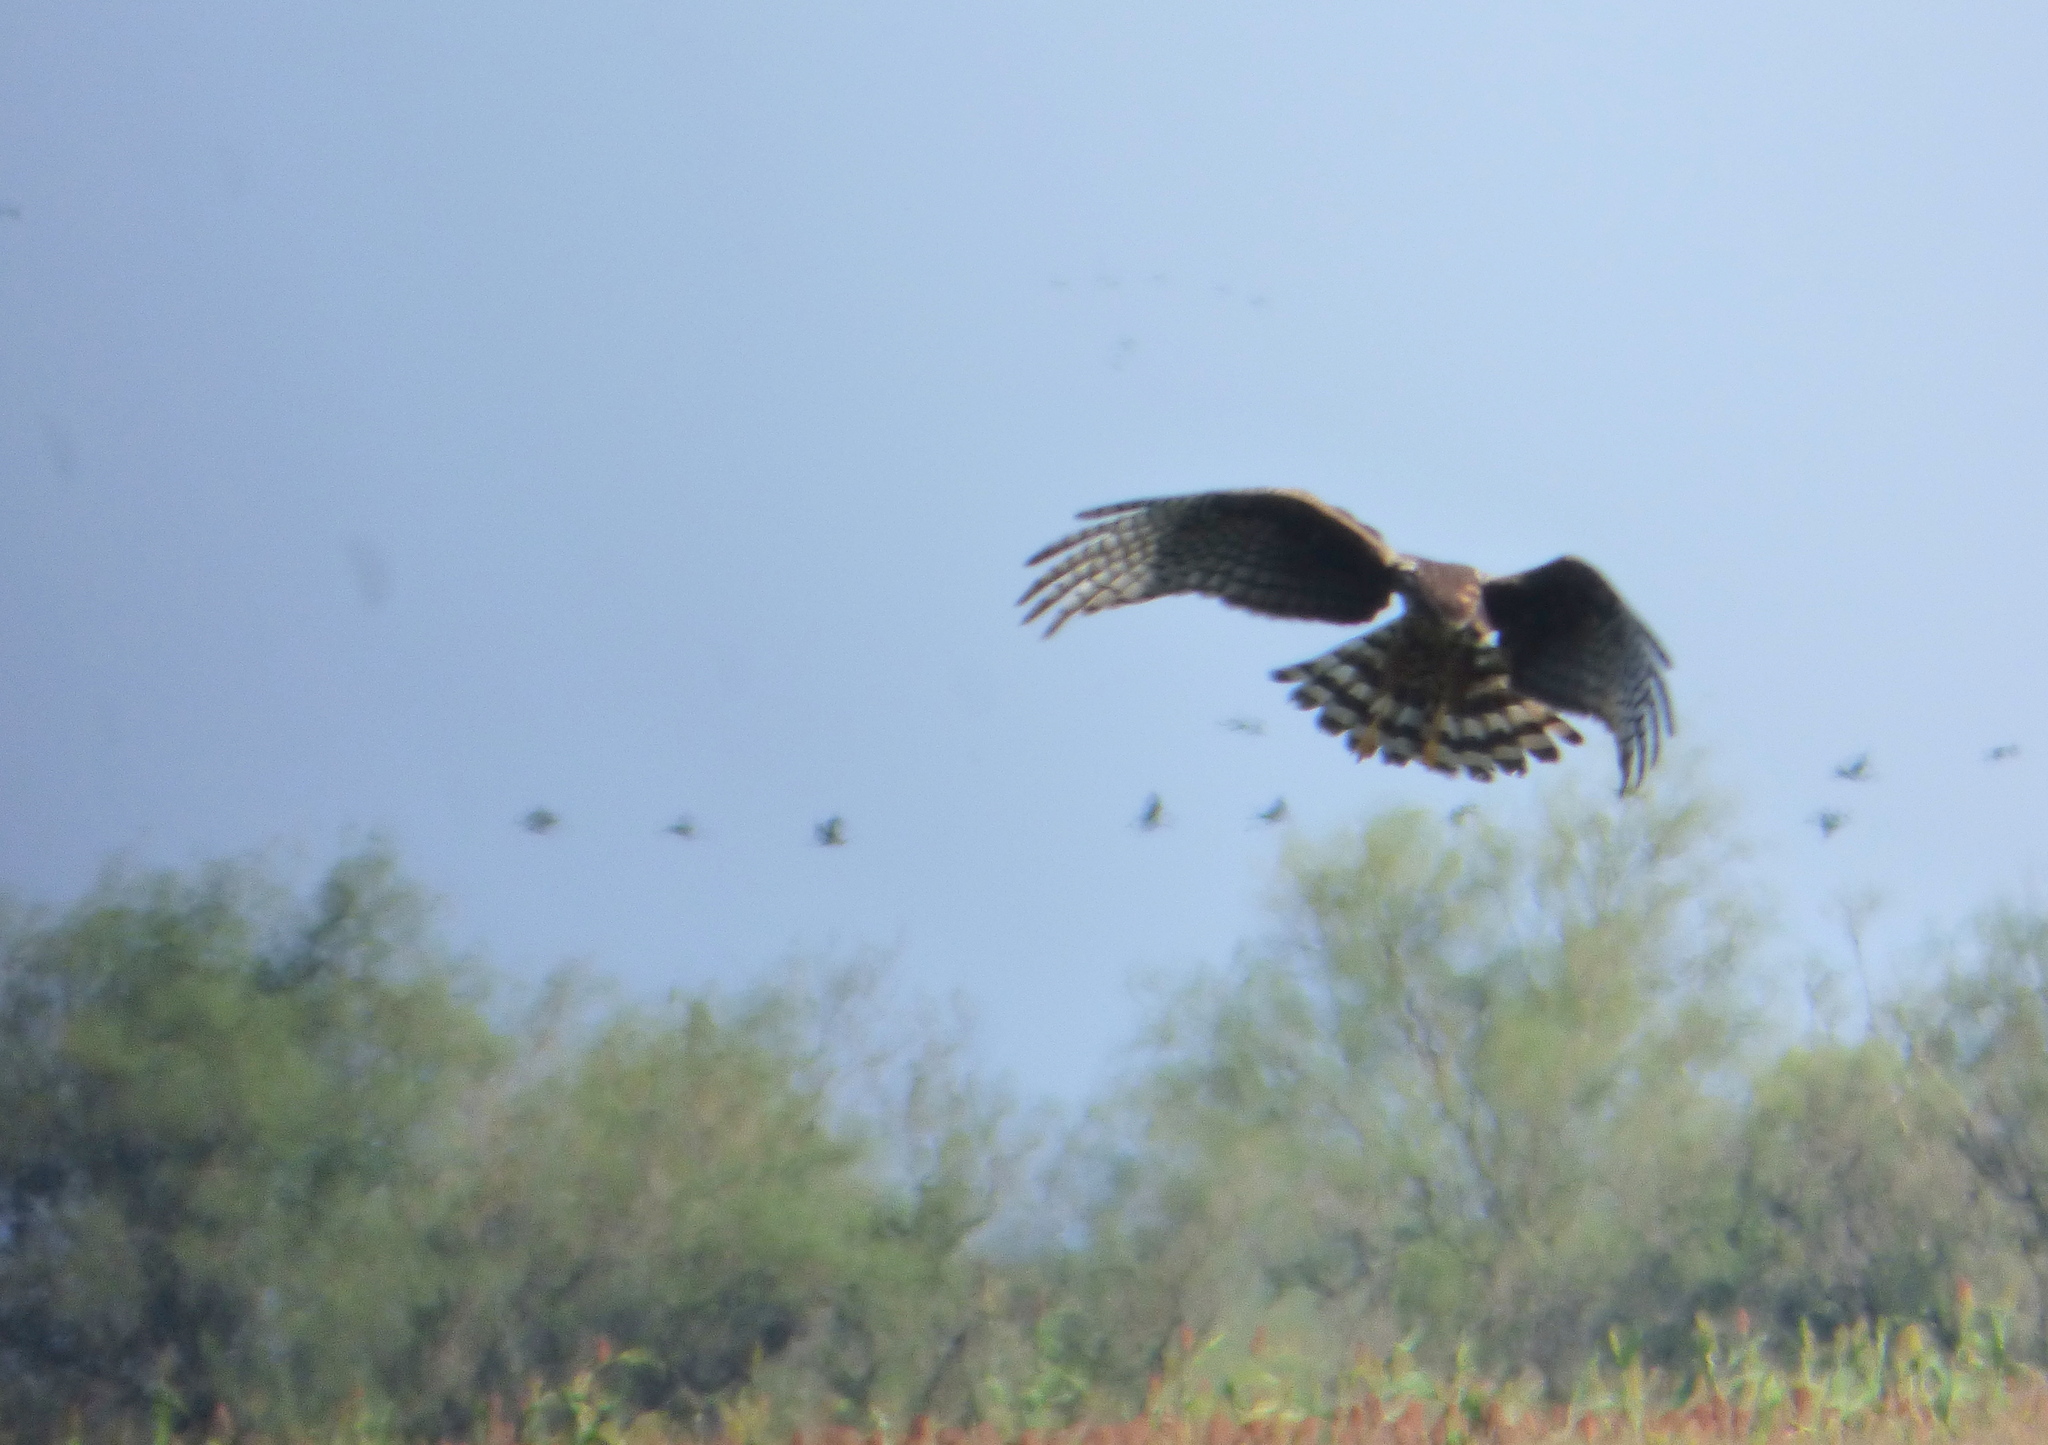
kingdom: Animalia
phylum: Chordata
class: Aves
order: Accipitriformes
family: Accipitridae
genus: Circus
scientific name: Circus buffoni
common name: Long-winged harrier
